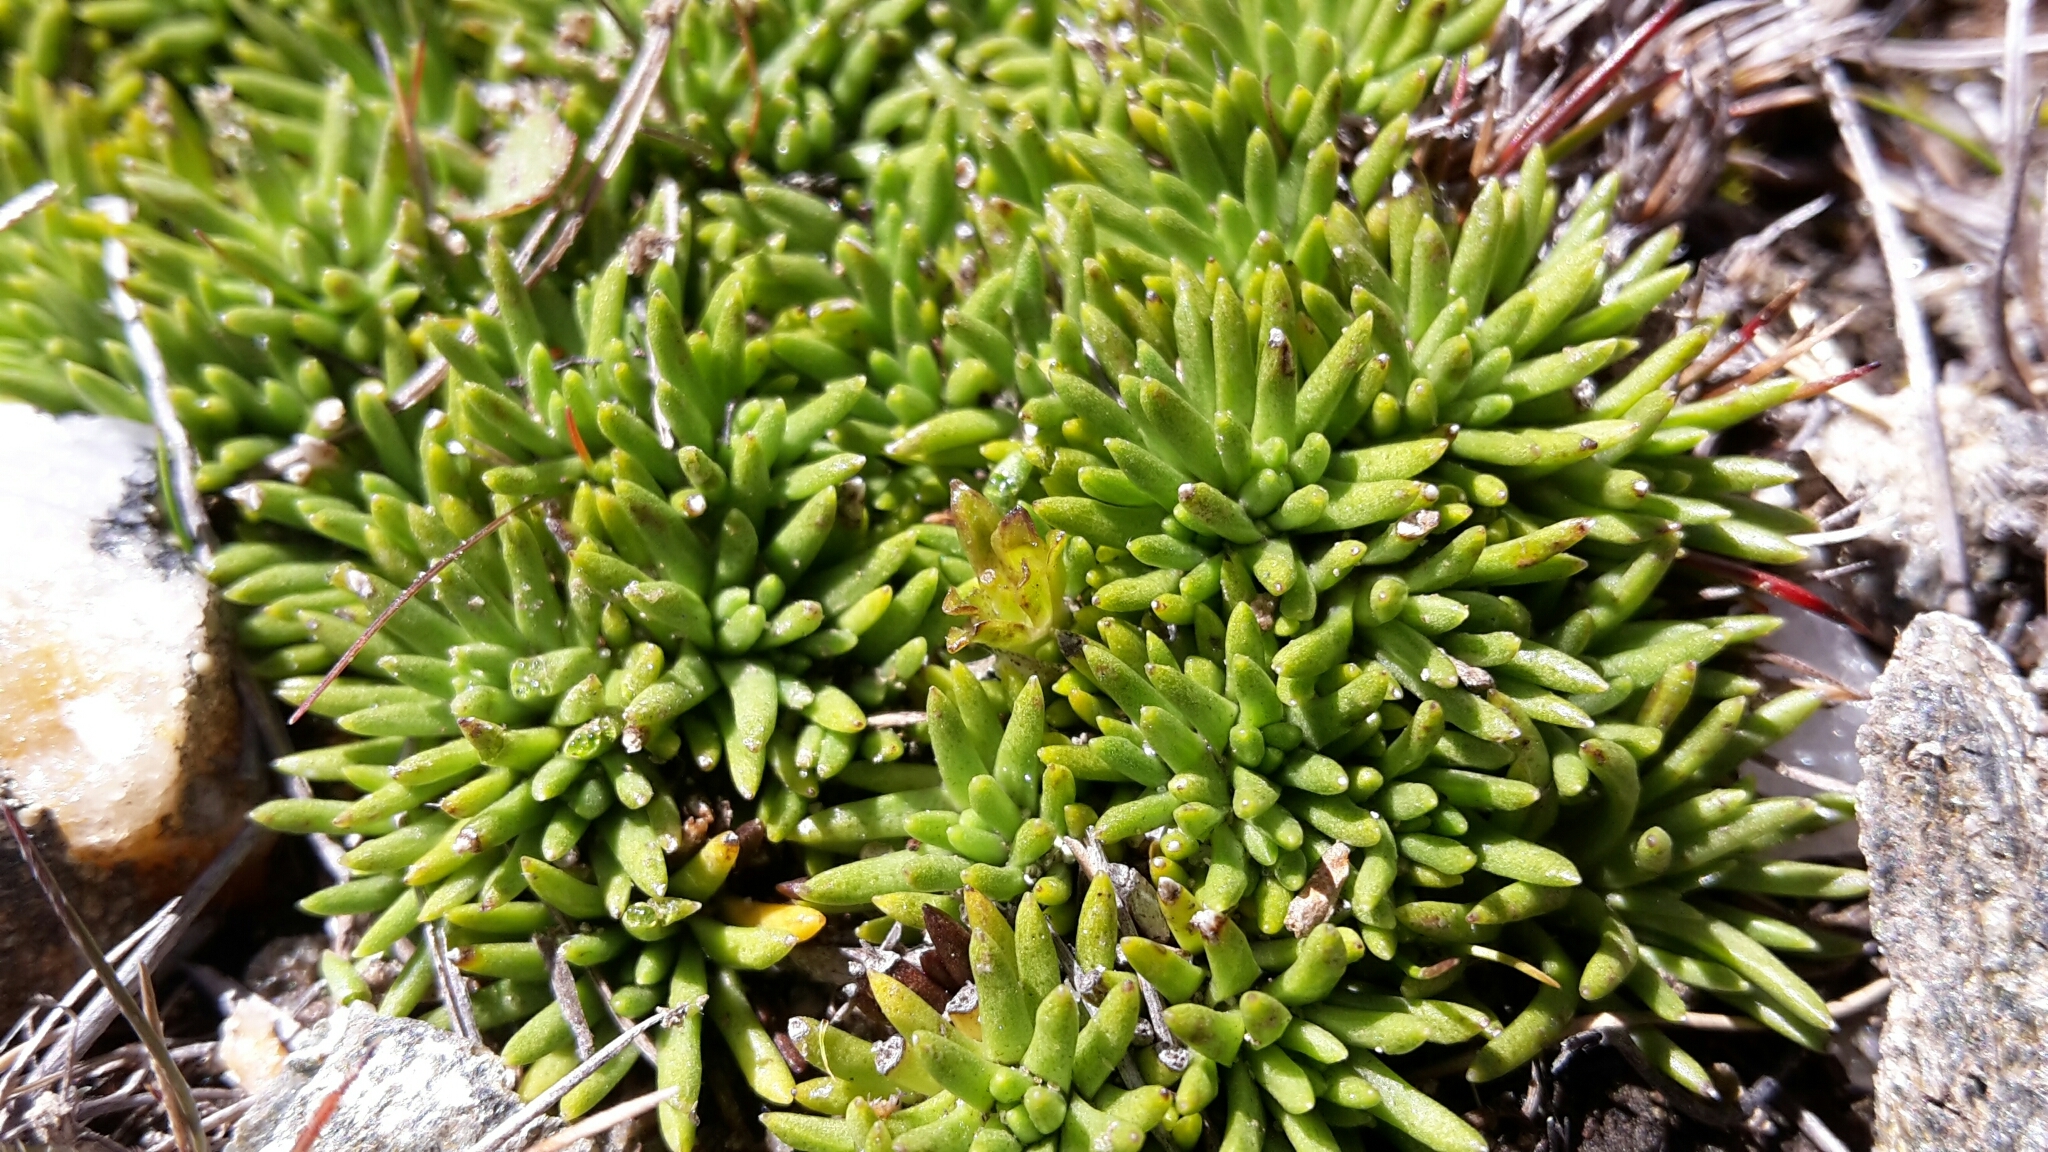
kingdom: Plantae
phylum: Tracheophyta
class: Magnoliopsida
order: Asterales
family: Asteraceae
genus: Abrotanella
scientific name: Abrotanella inconspicua
